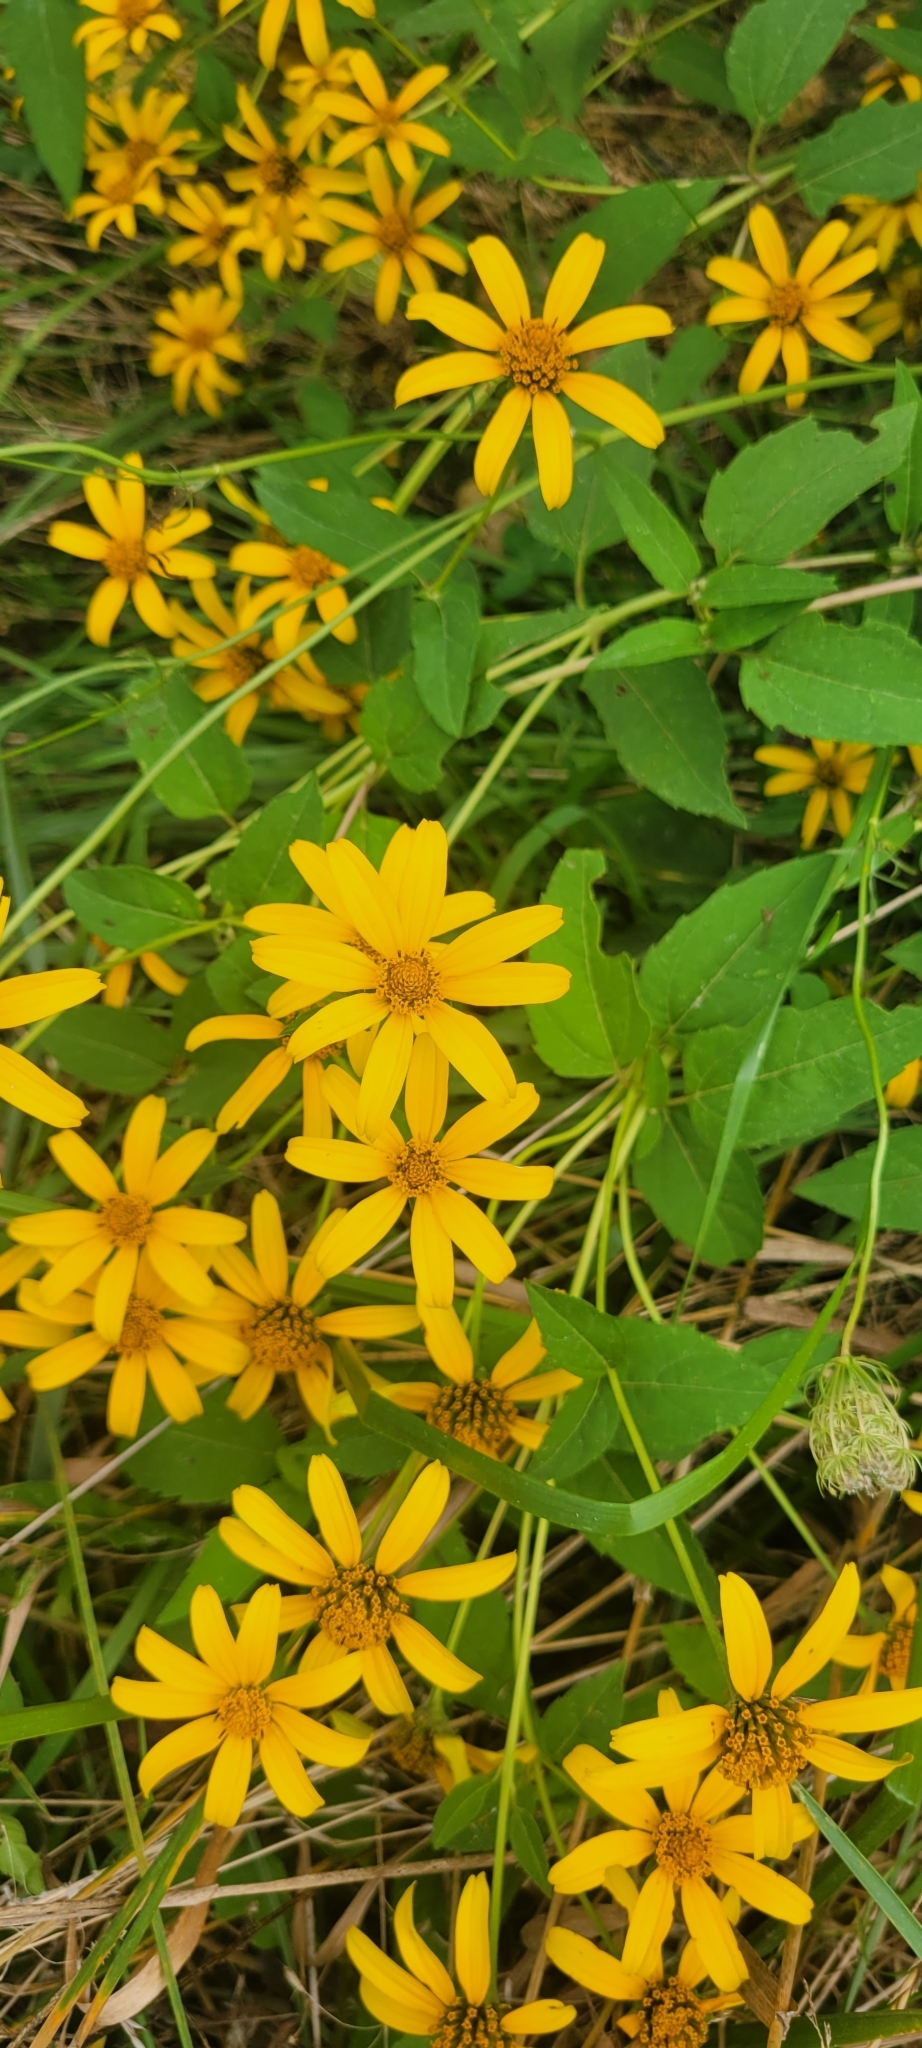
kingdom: Plantae
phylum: Tracheophyta
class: Magnoliopsida
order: Asterales
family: Asteraceae
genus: Heliopsis
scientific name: Heliopsis helianthoides
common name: False sunflower
